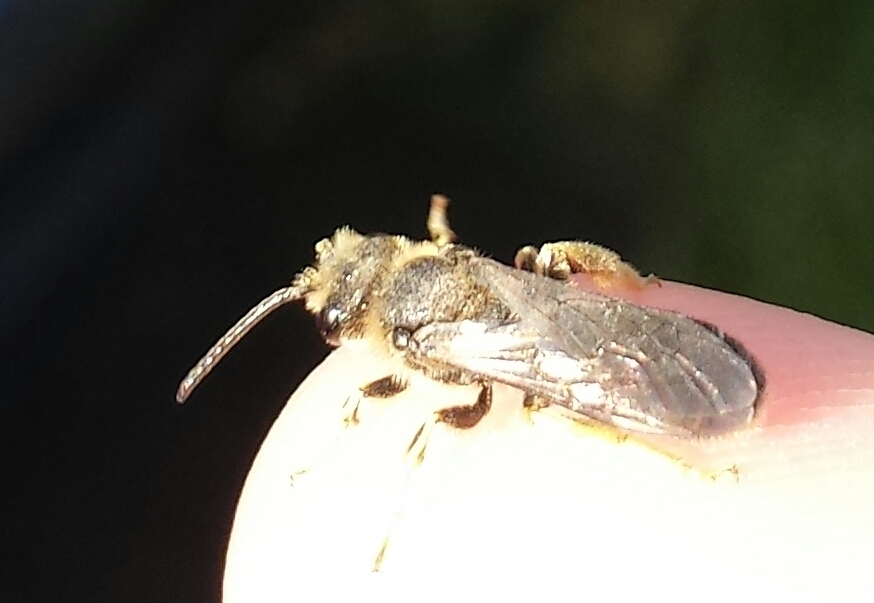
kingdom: Animalia
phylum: Arthropoda
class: Insecta
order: Hymenoptera
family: Halictidae
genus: Halictus
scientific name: Halictus rubicundus
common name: Orange-legged furrow bee
